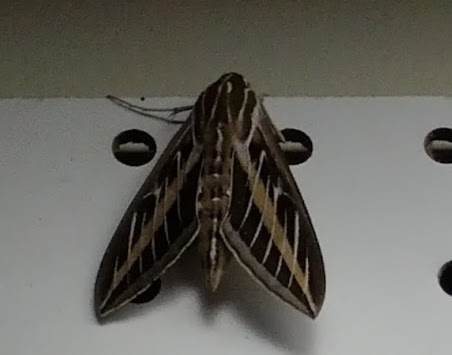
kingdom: Animalia
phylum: Arthropoda
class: Insecta
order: Lepidoptera
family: Sphingidae
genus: Hyles
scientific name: Hyles lineata
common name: White-lined sphinx
